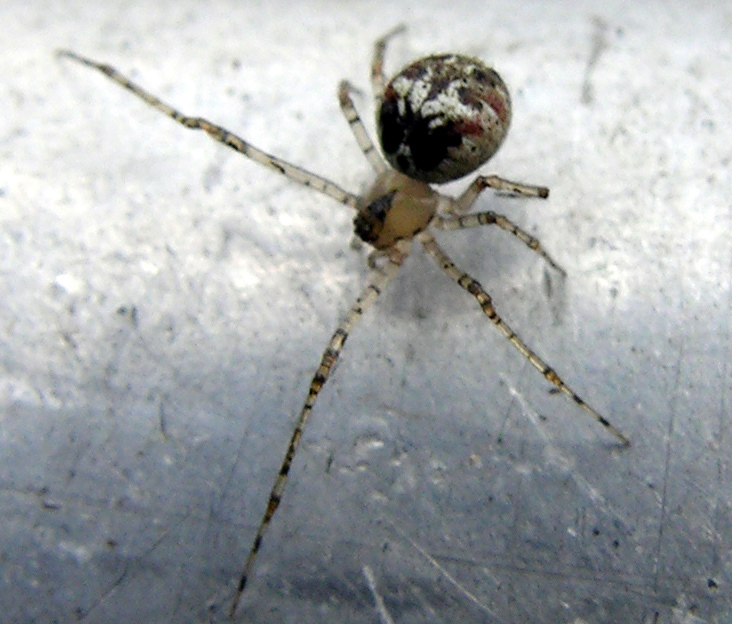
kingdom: Animalia
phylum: Arthropoda
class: Arachnida
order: Araneae
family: Theridiidae
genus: Platnickina
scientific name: Platnickina tincta
